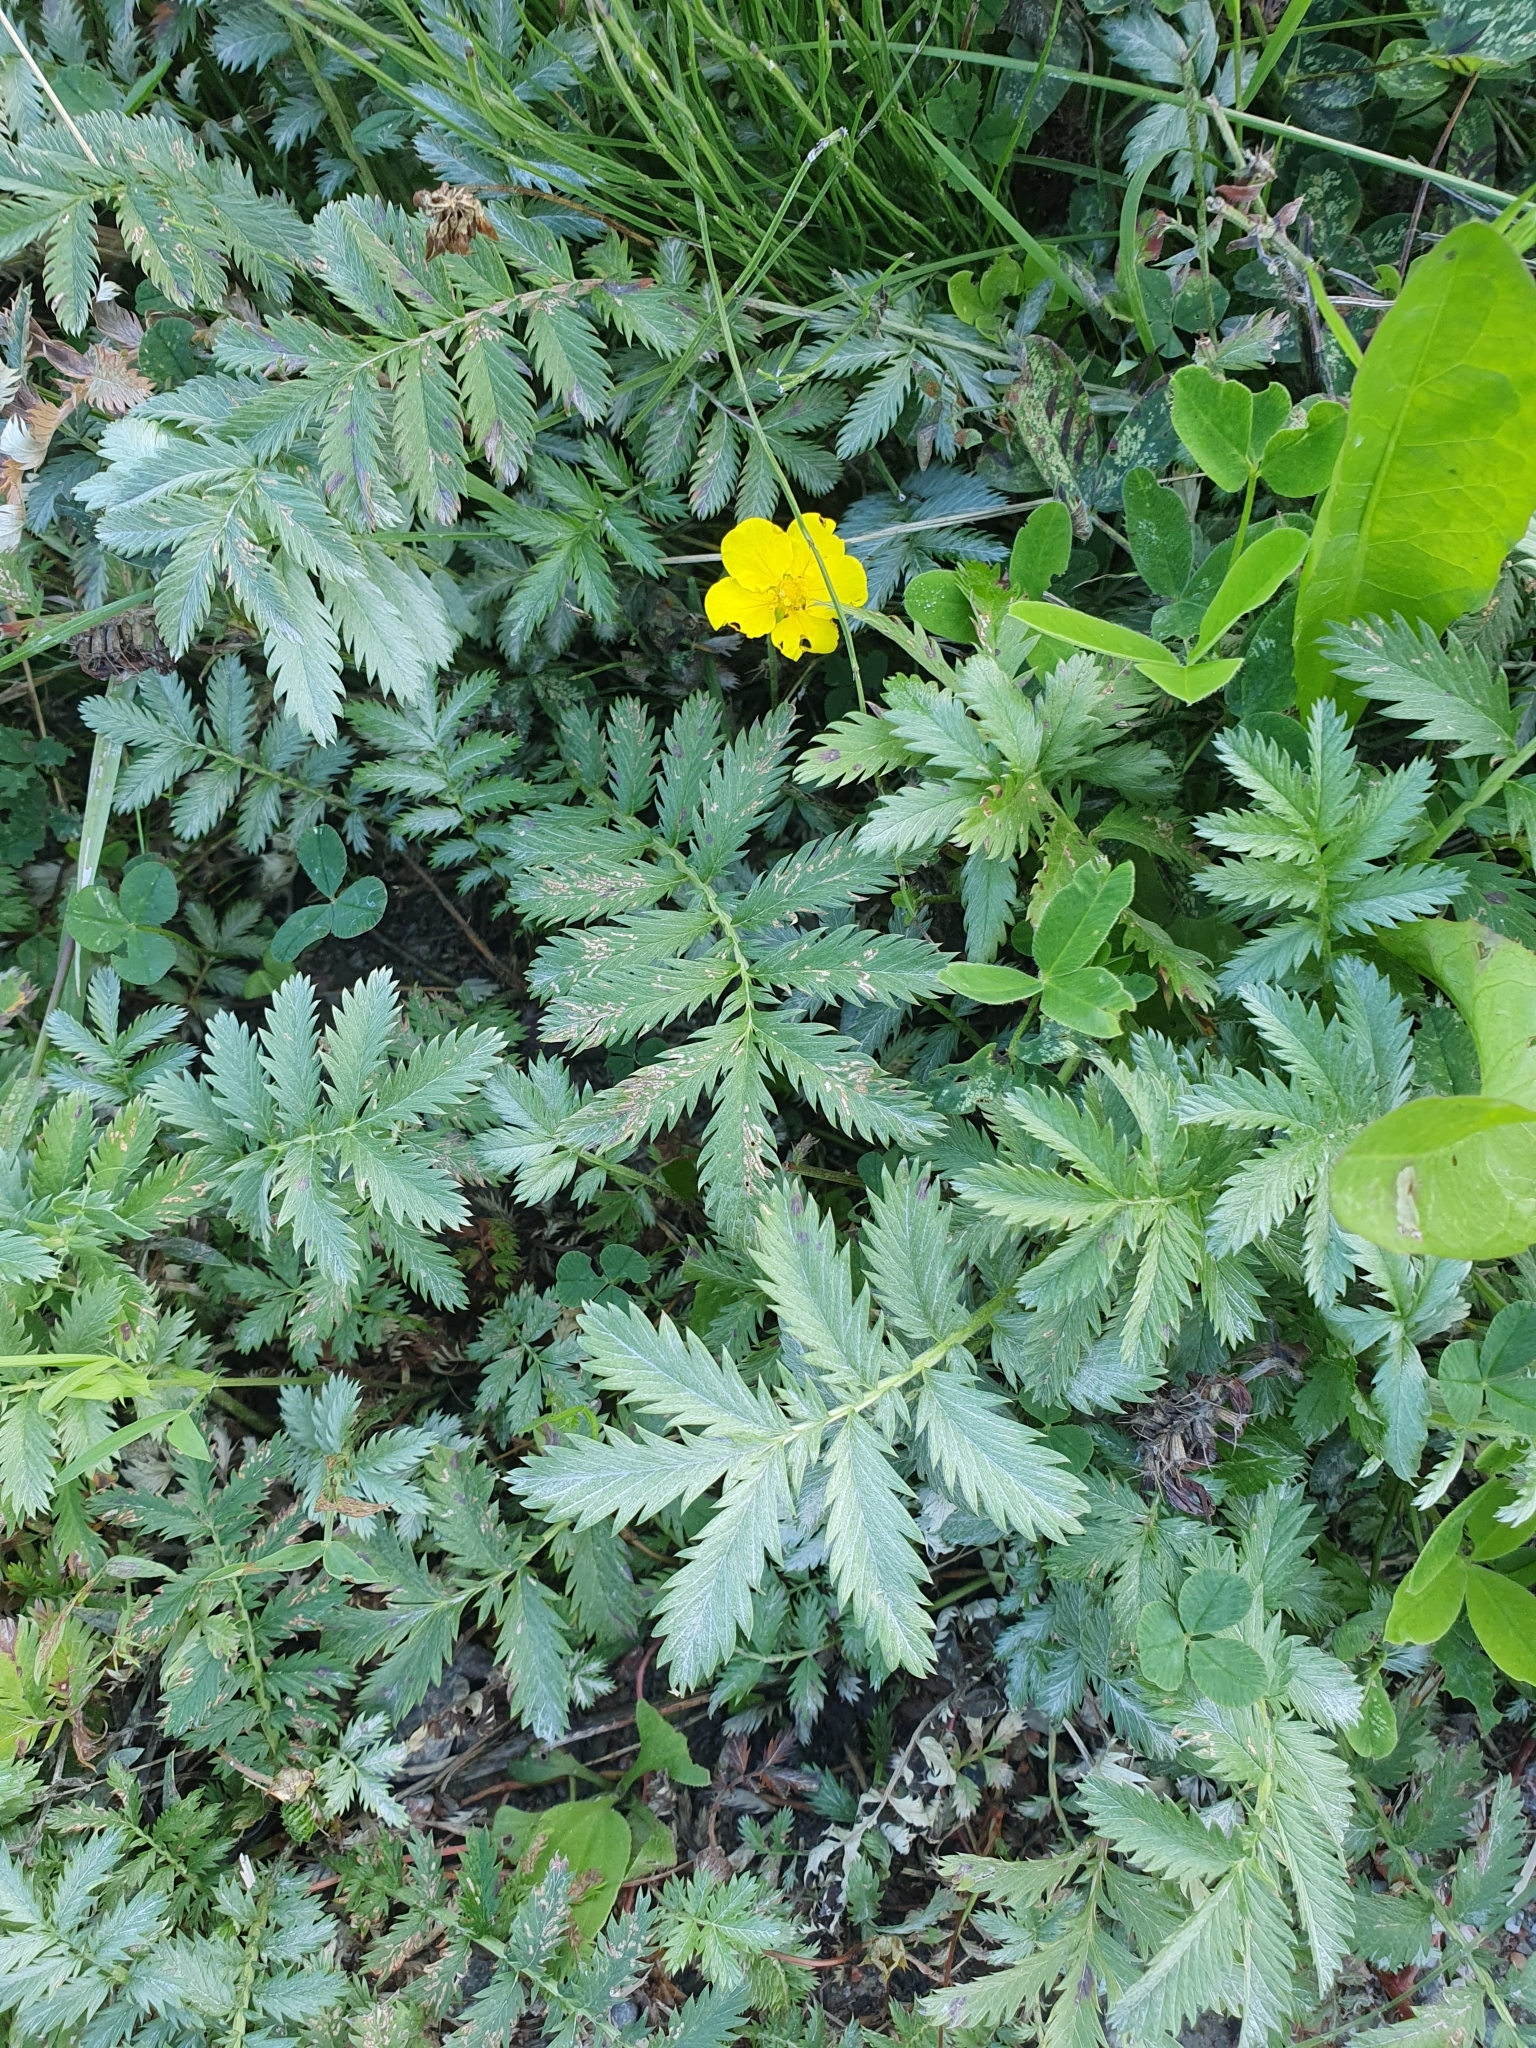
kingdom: Plantae
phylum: Tracheophyta
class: Magnoliopsida
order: Rosales
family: Rosaceae
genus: Argentina
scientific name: Argentina anserina
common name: Common silverweed
